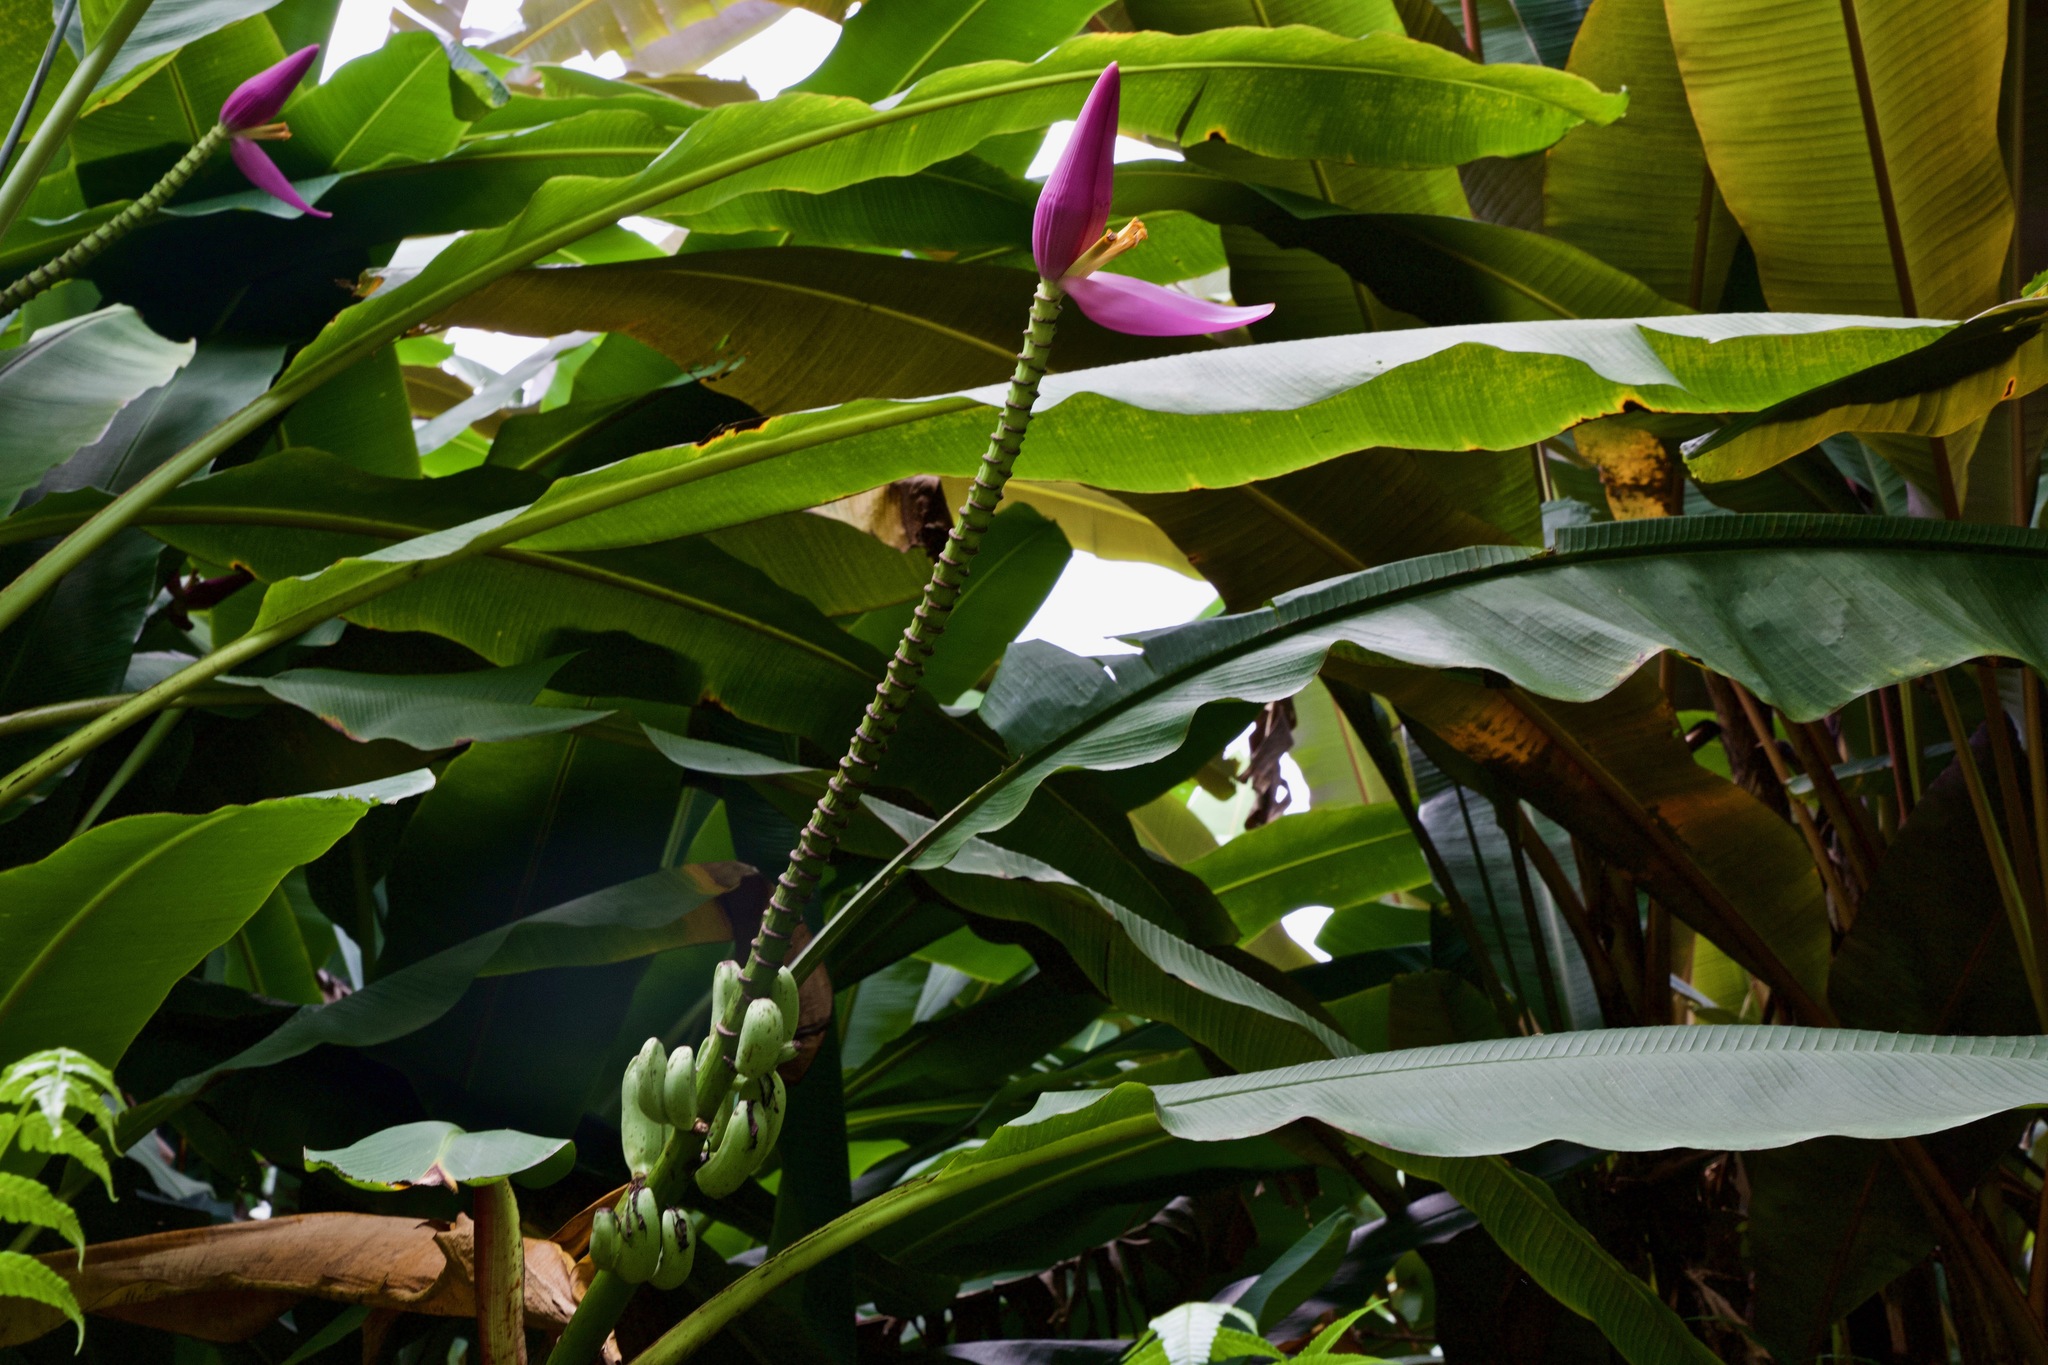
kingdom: Plantae
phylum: Tracheophyta
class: Liliopsida
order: Zingiberales
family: Musaceae
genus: Musa
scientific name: Musa ornata
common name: Flowering banana
